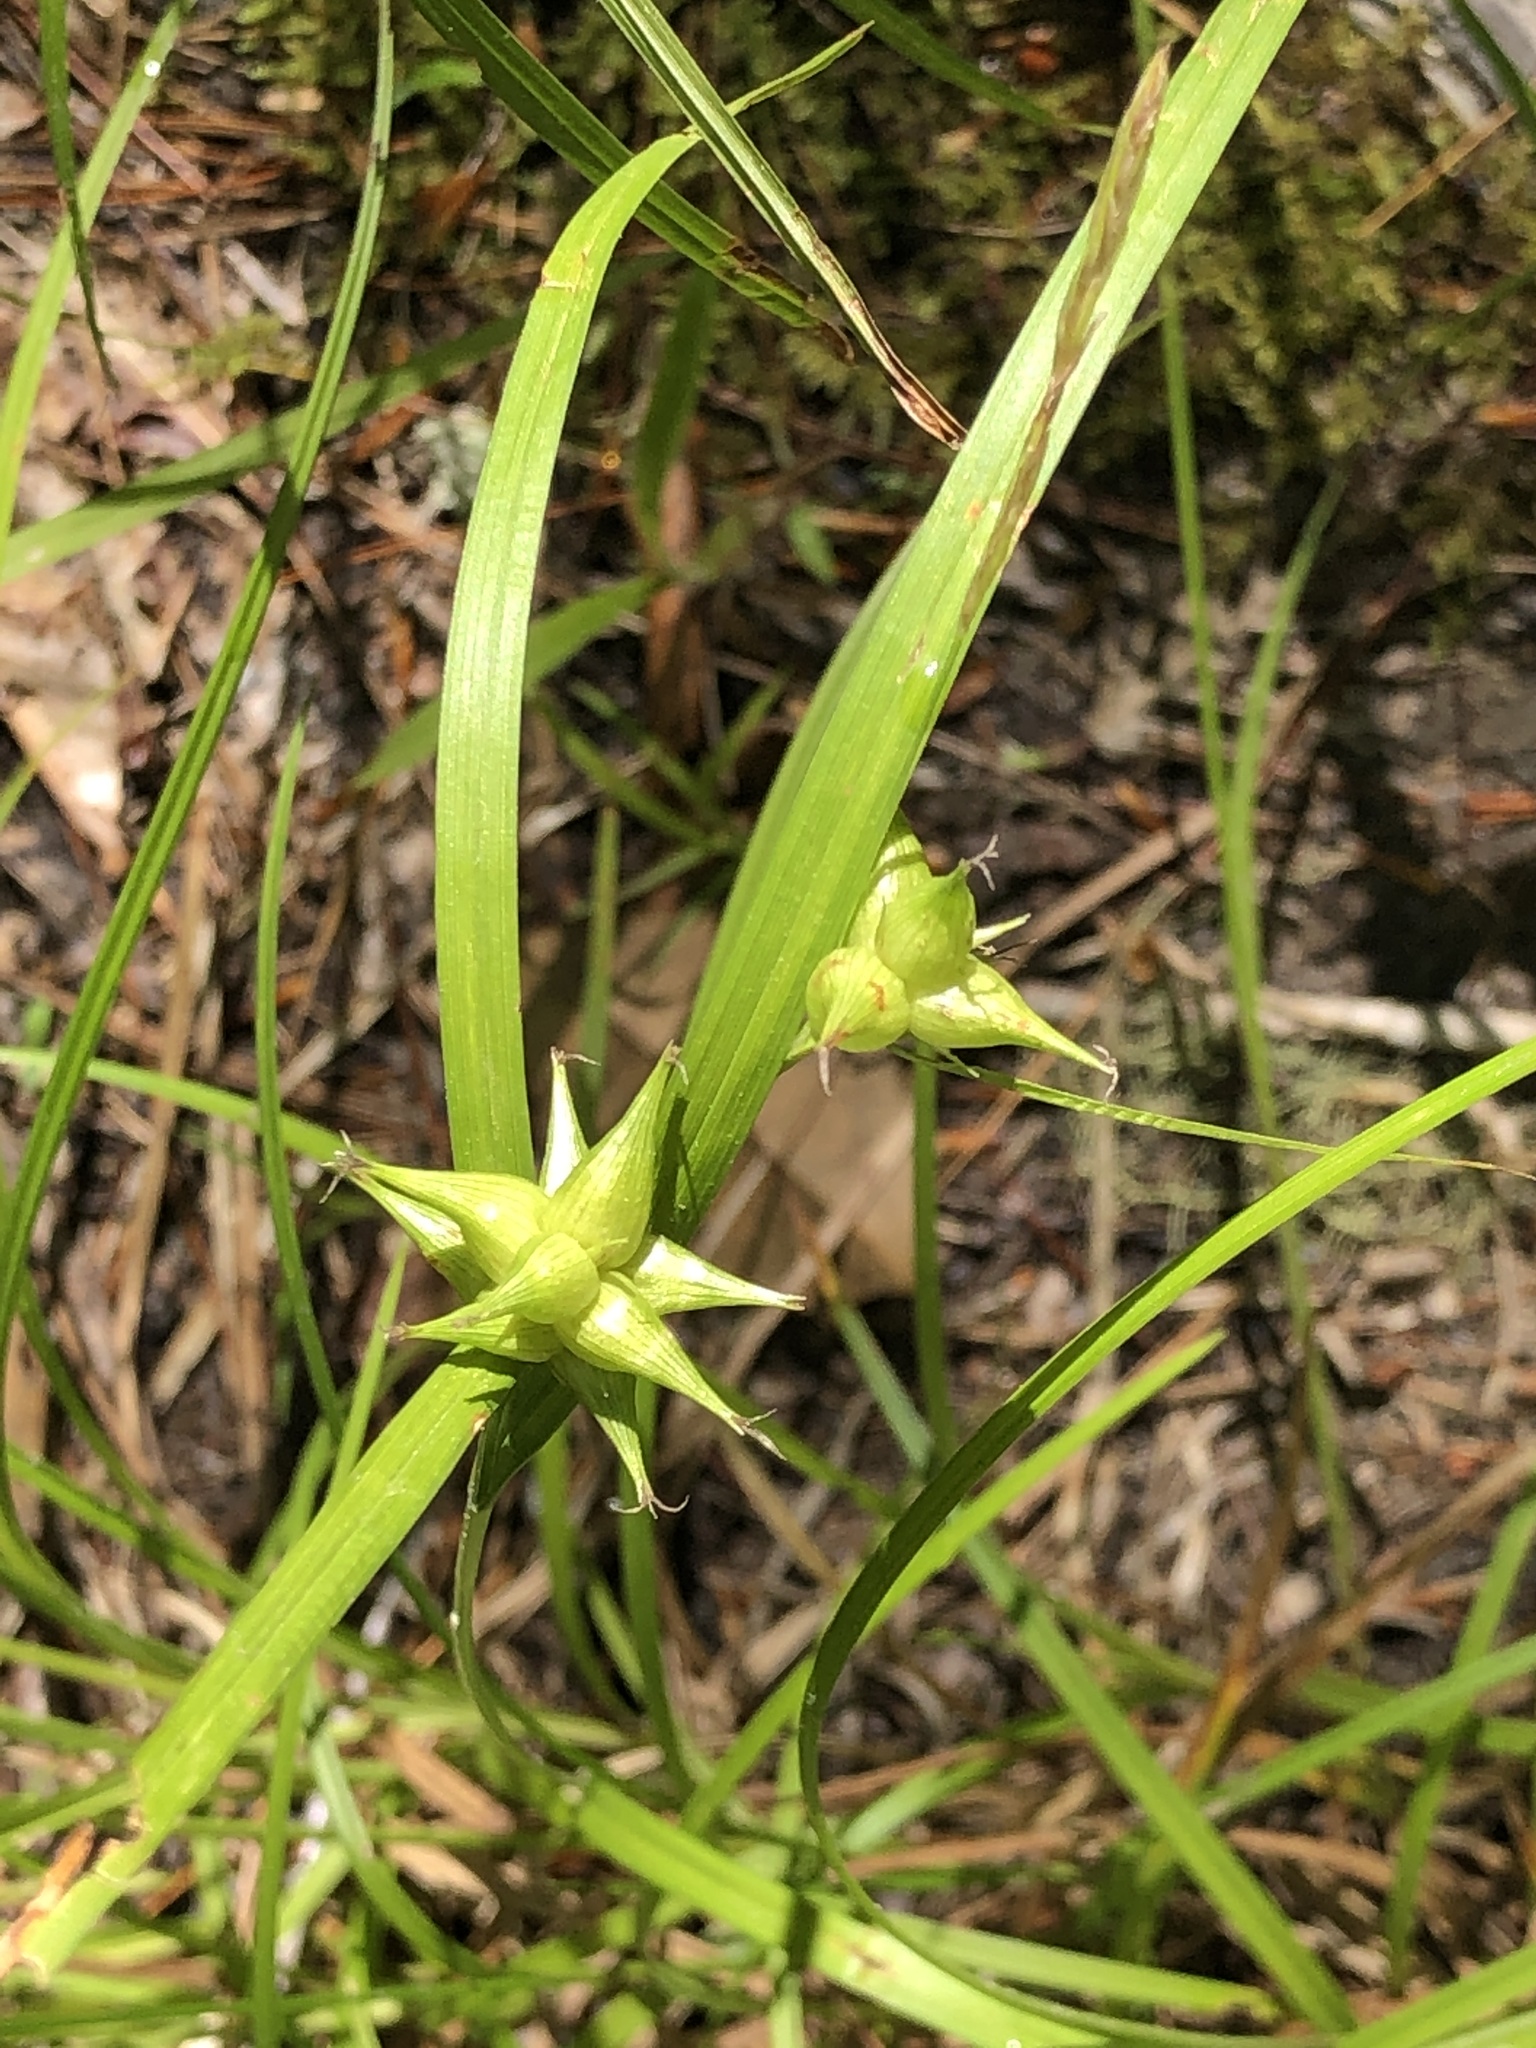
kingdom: Plantae
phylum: Tracheophyta
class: Liliopsida
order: Poales
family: Cyperaceae
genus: Carex
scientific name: Carex intumescens
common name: Greater bladder sedge
